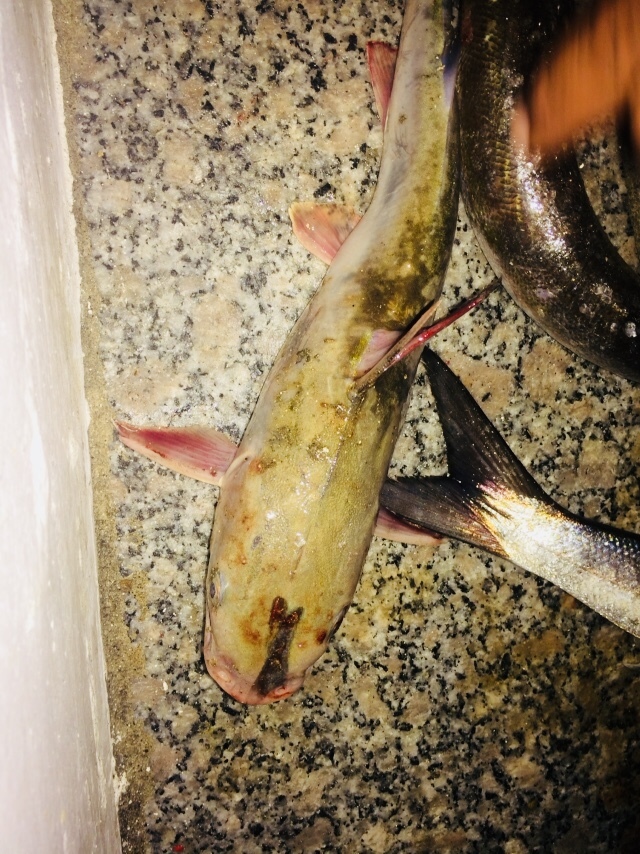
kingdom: Animalia
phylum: Chordata
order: Siluriformes
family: Ariidae
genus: Ariopsis
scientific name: Ariopsis felis
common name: Hardhead catfish
